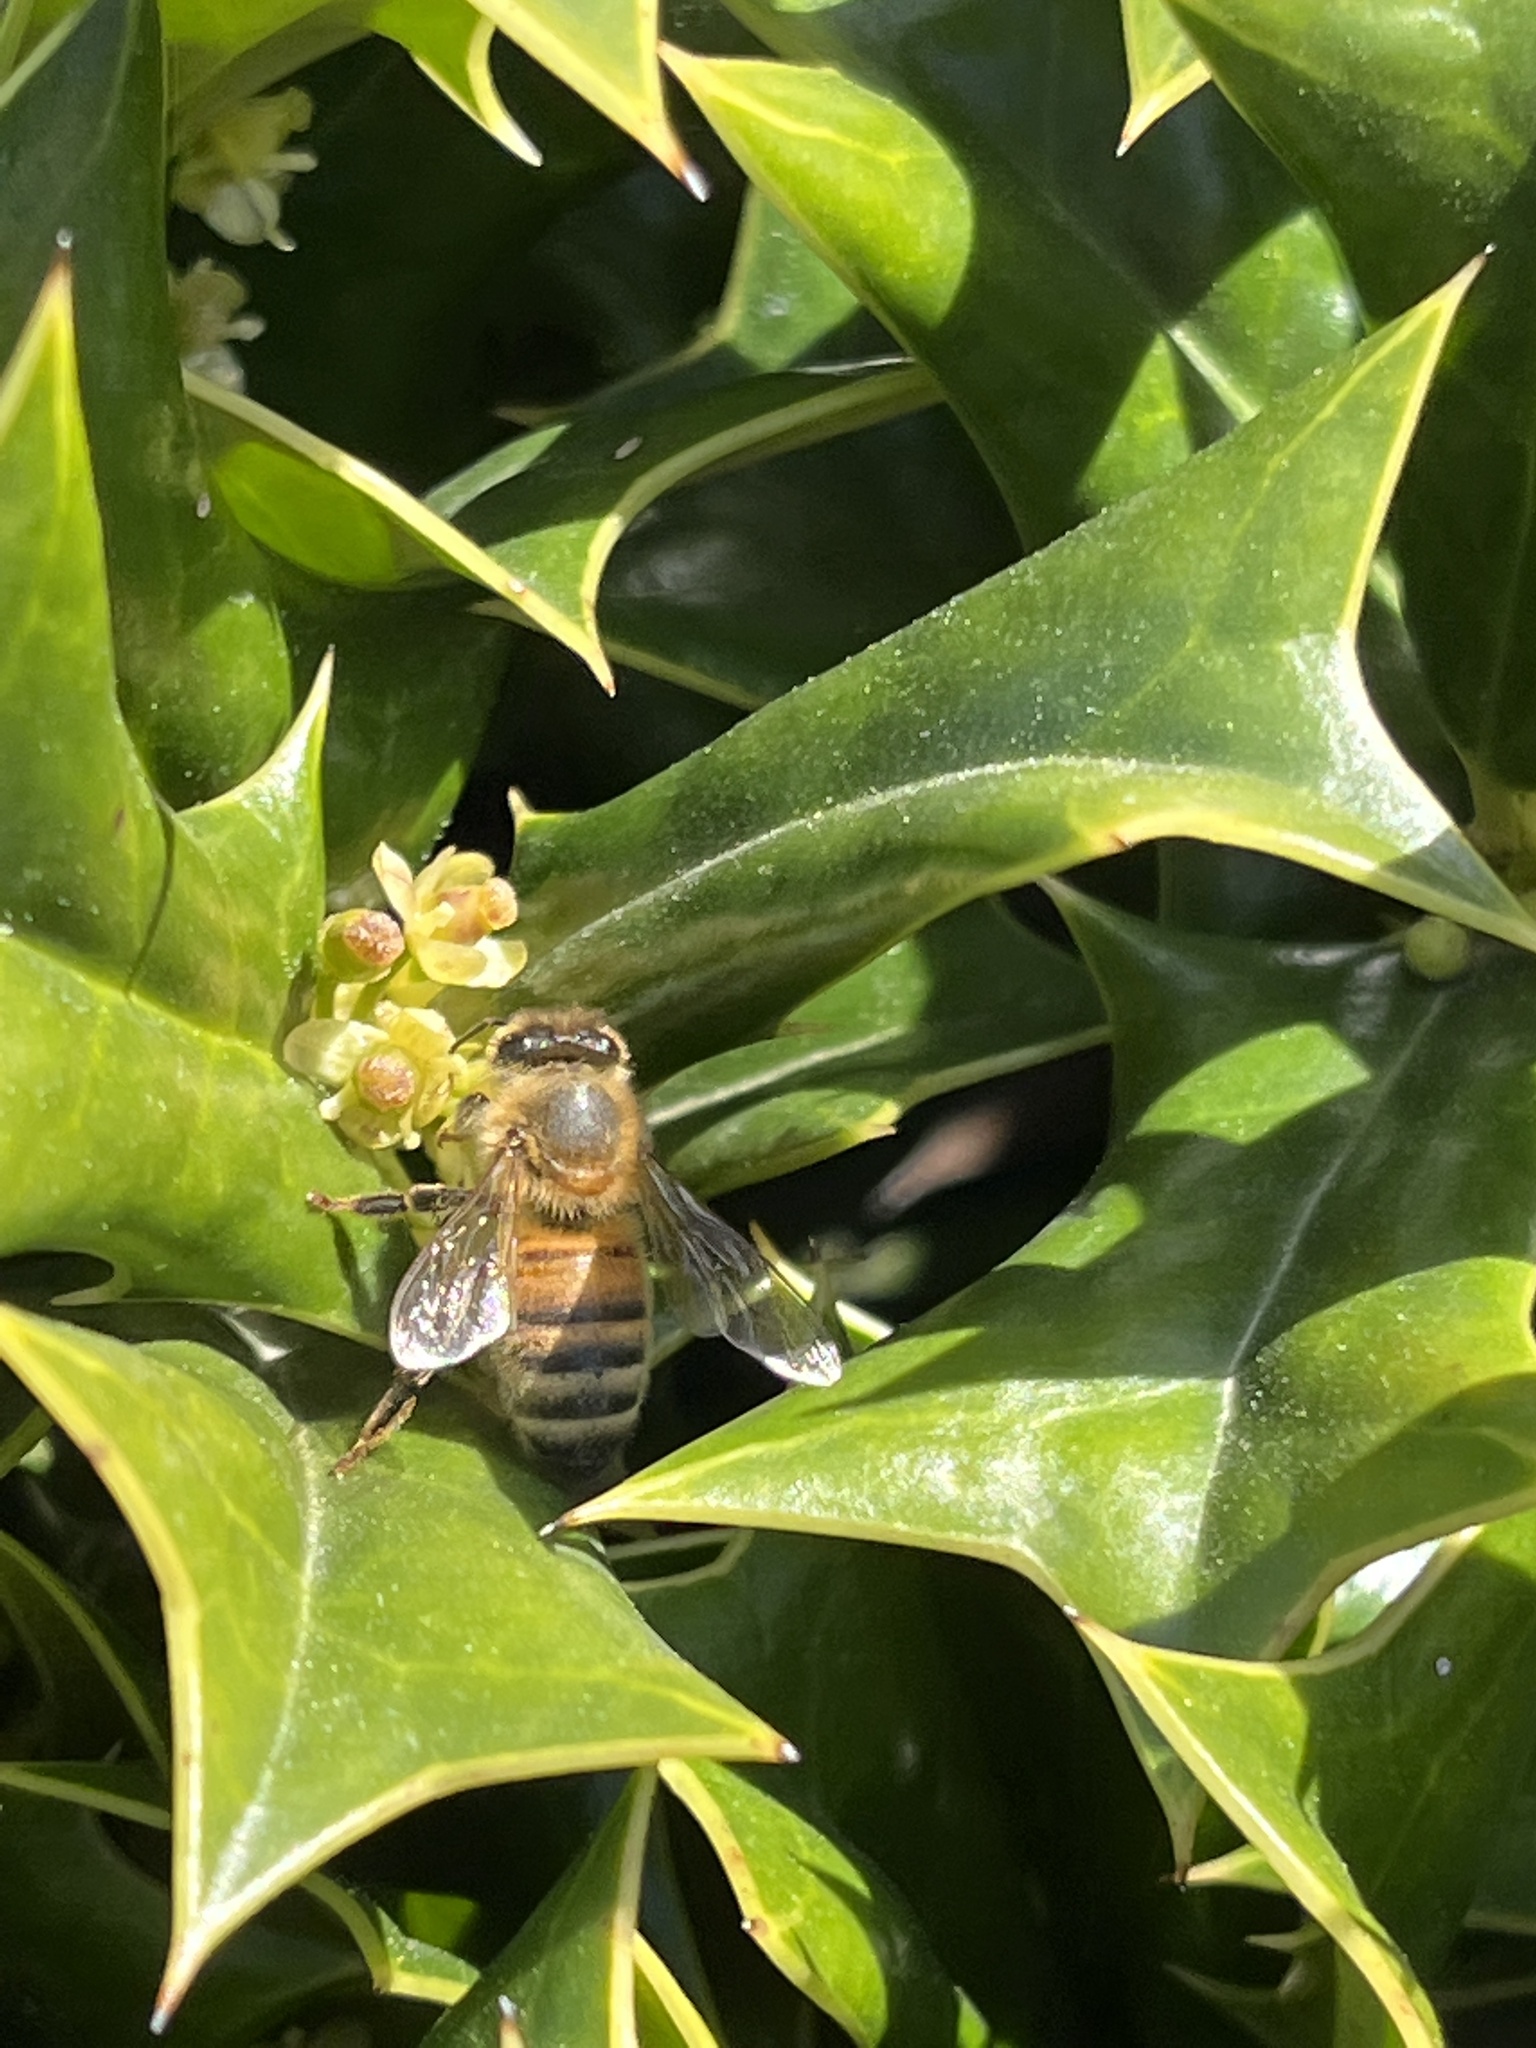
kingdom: Animalia
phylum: Arthropoda
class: Insecta
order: Hymenoptera
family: Apidae
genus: Apis
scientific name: Apis mellifera
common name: Honey bee
